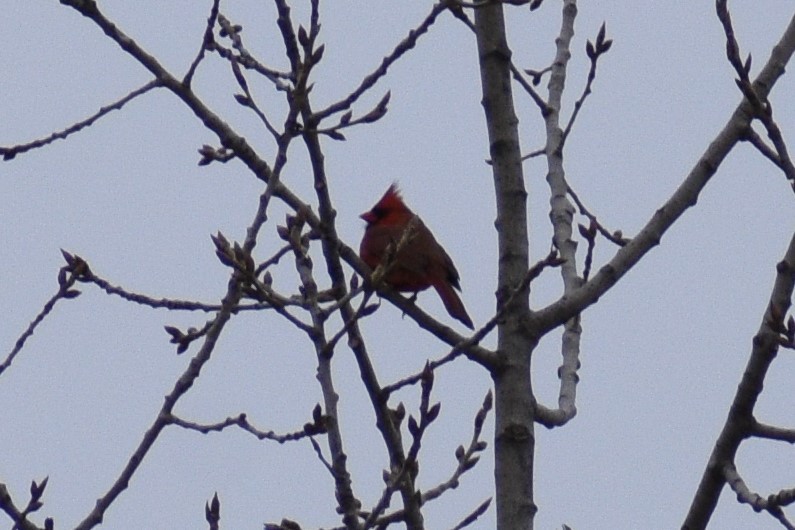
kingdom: Animalia
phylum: Chordata
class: Aves
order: Passeriformes
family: Cardinalidae
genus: Cardinalis
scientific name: Cardinalis cardinalis
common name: Northern cardinal
